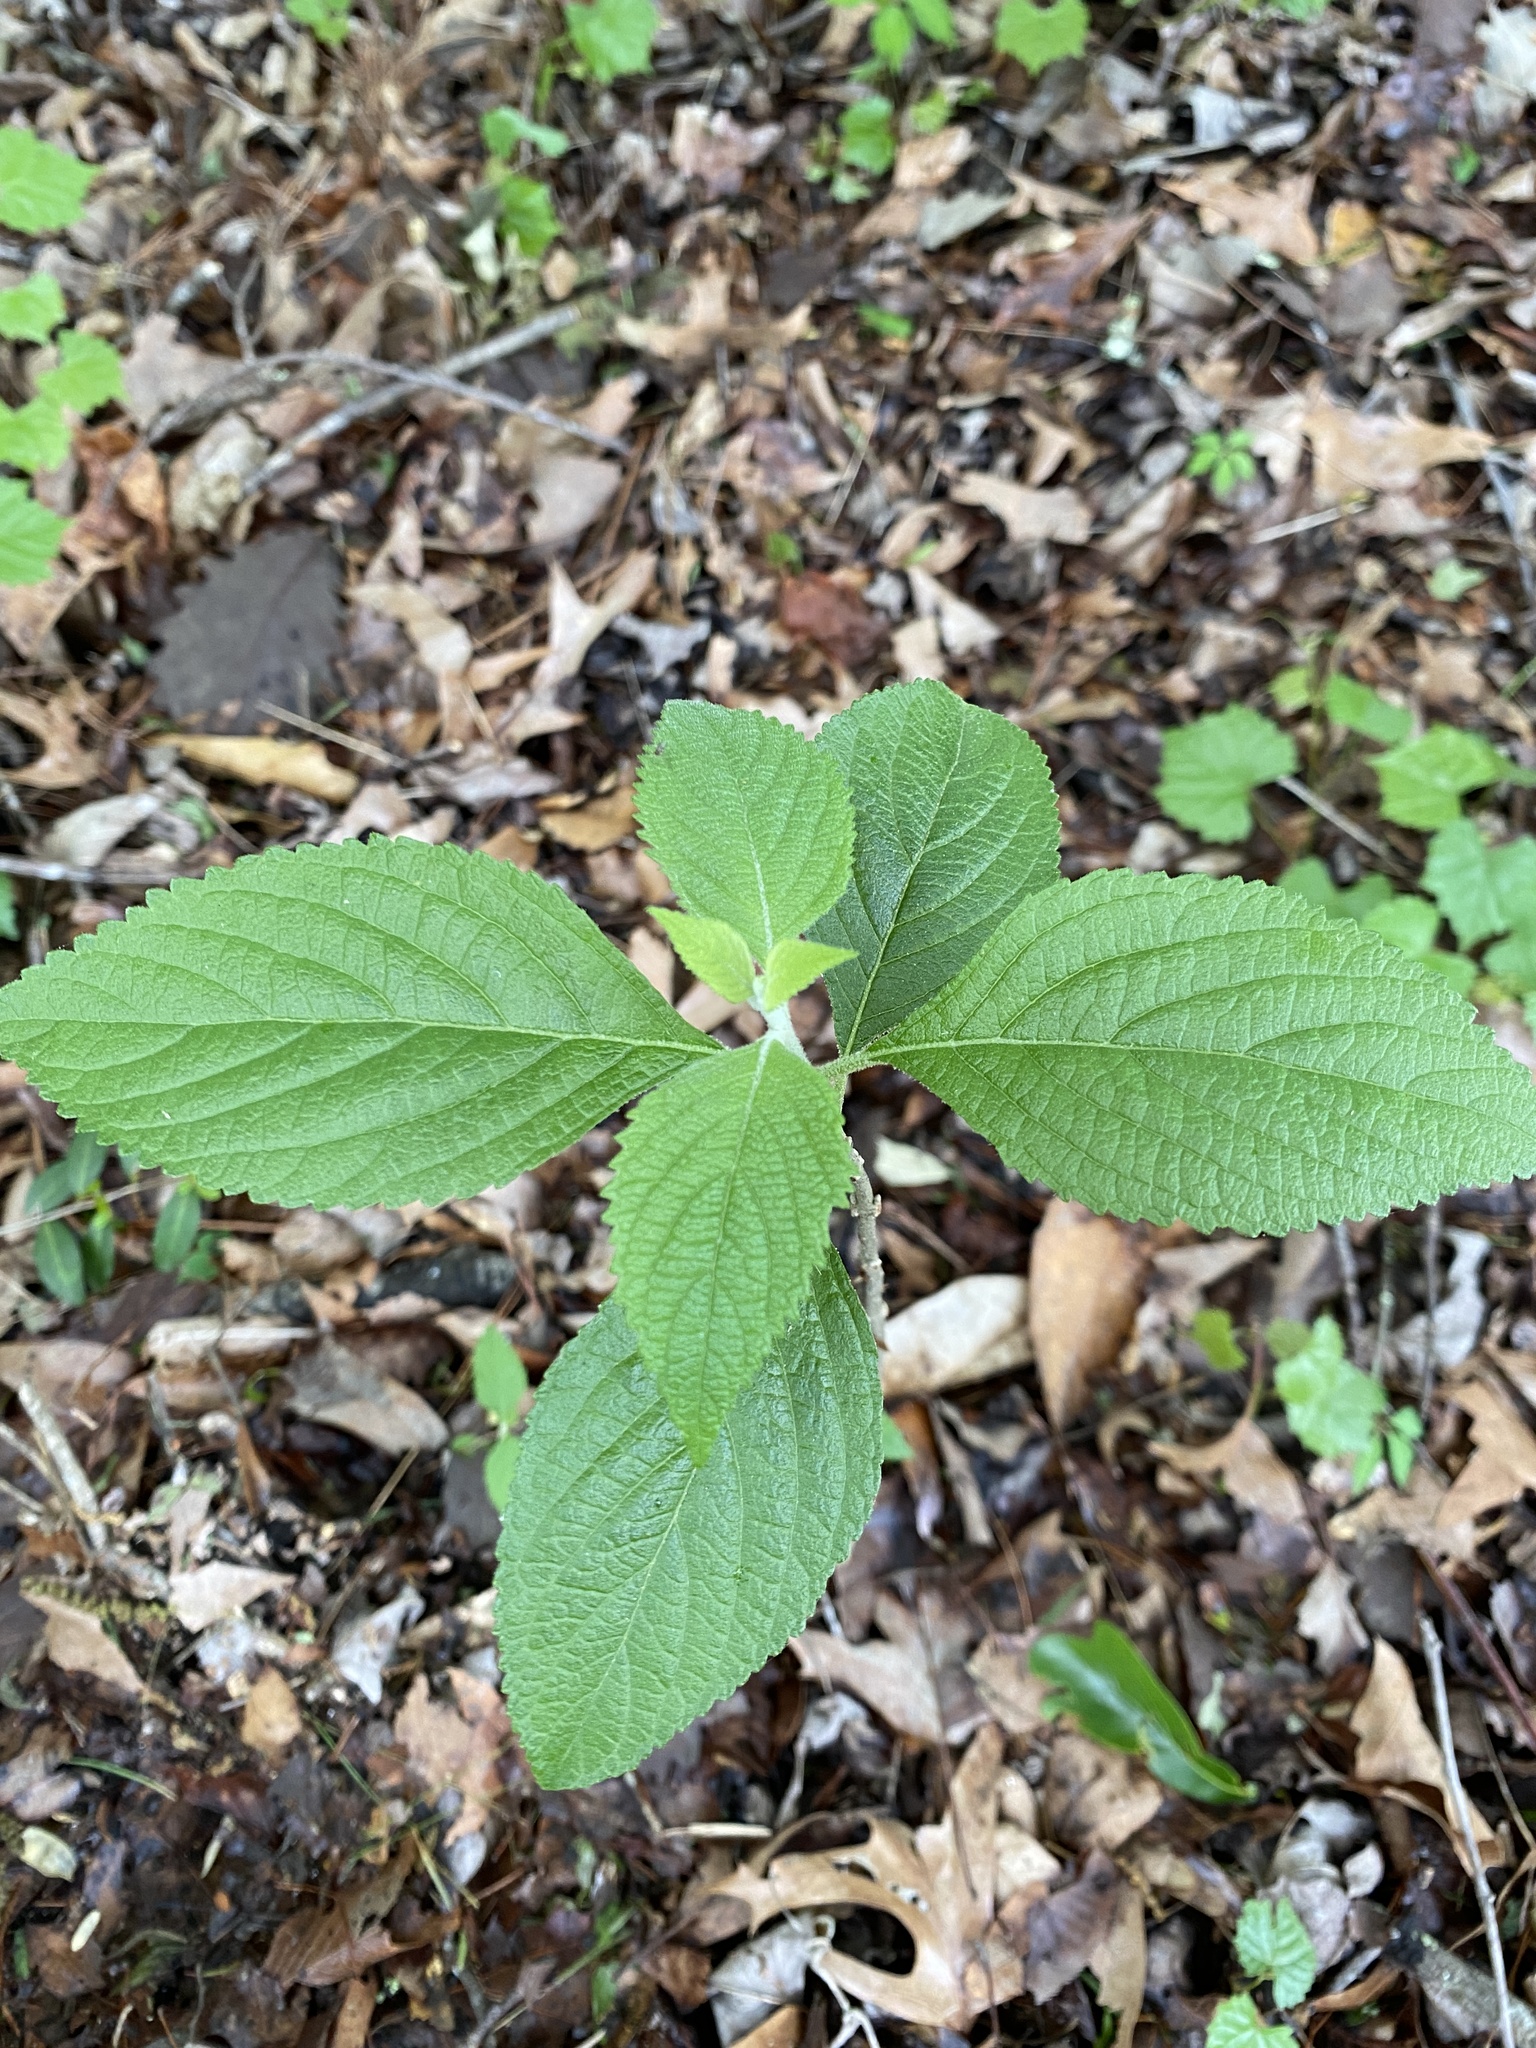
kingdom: Plantae
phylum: Tracheophyta
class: Magnoliopsida
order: Lamiales
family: Lamiaceae
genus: Callicarpa
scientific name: Callicarpa americana
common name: American beautyberry
